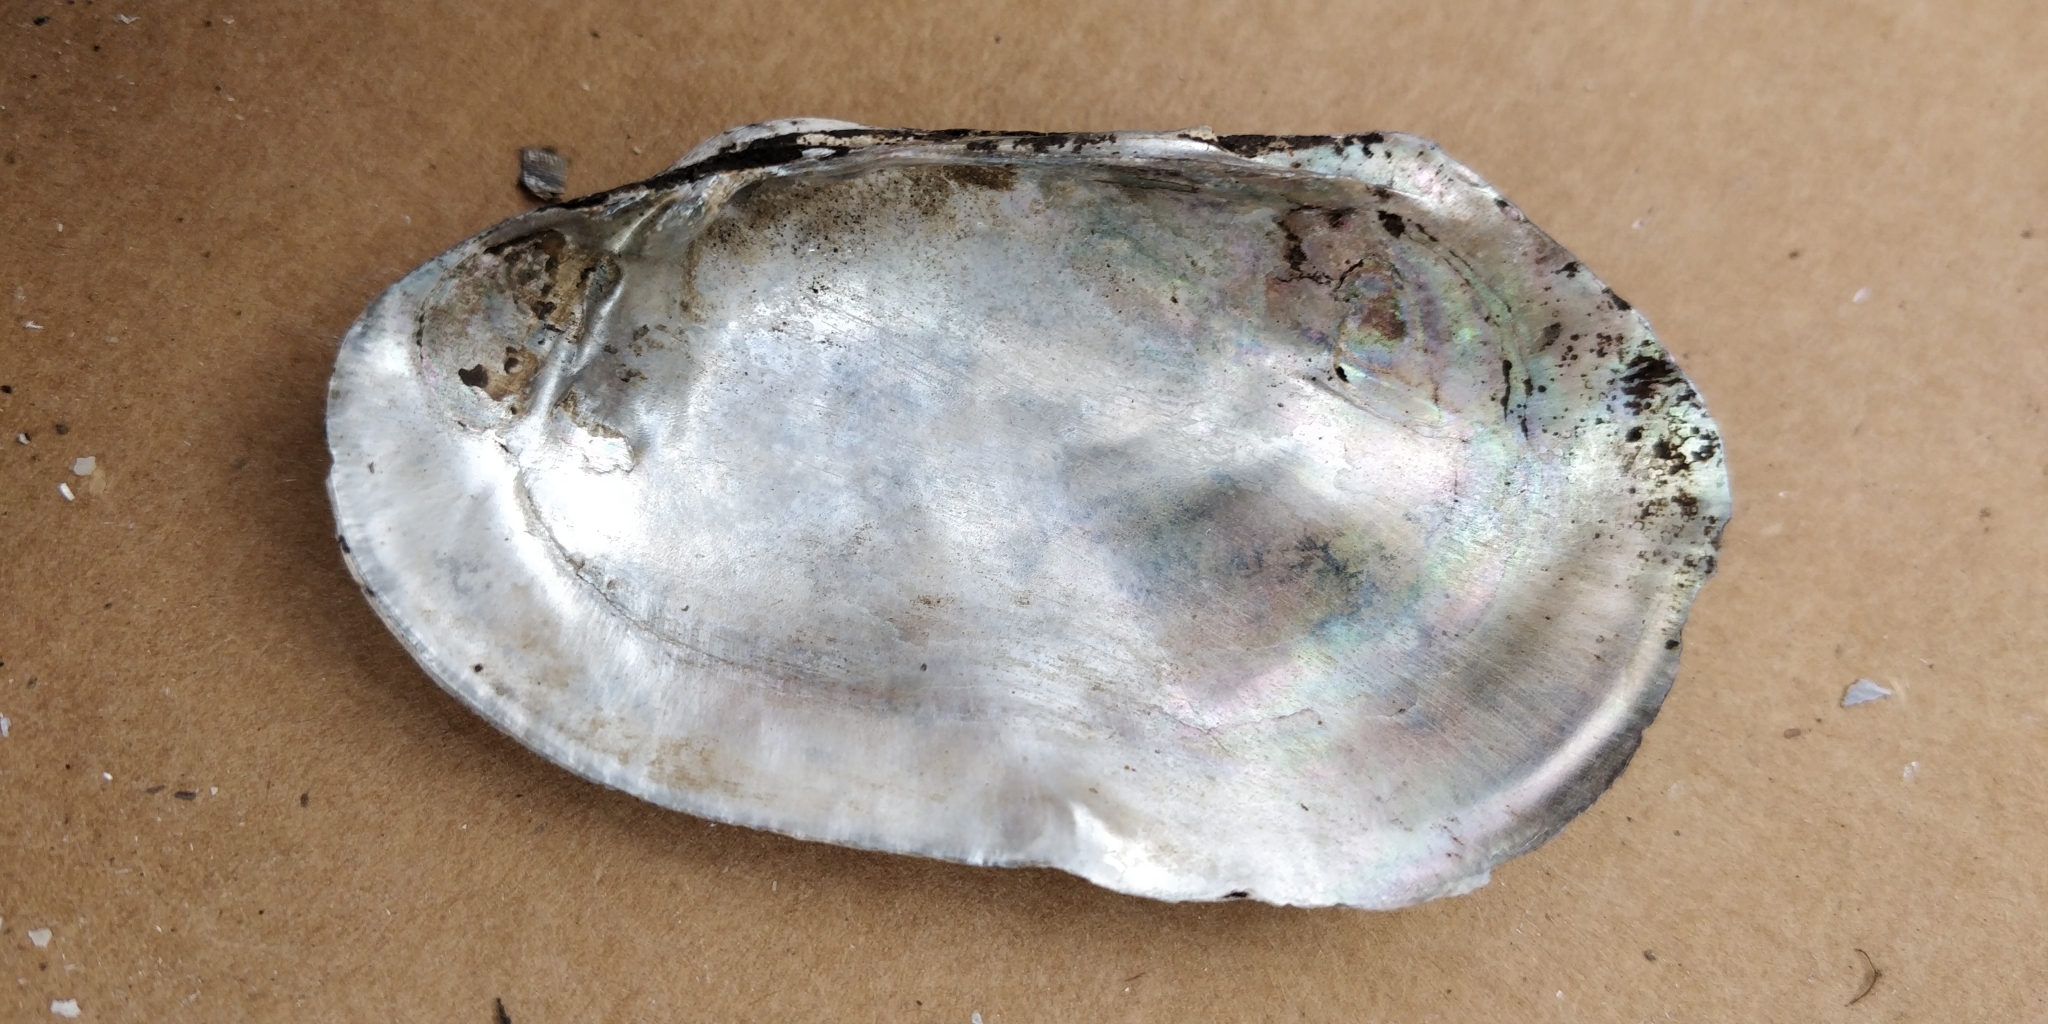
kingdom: Animalia
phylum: Mollusca
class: Bivalvia
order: Unionida
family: Unionidae
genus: Lampsilis
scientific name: Lampsilis siliquoidea
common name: Fatmucket
